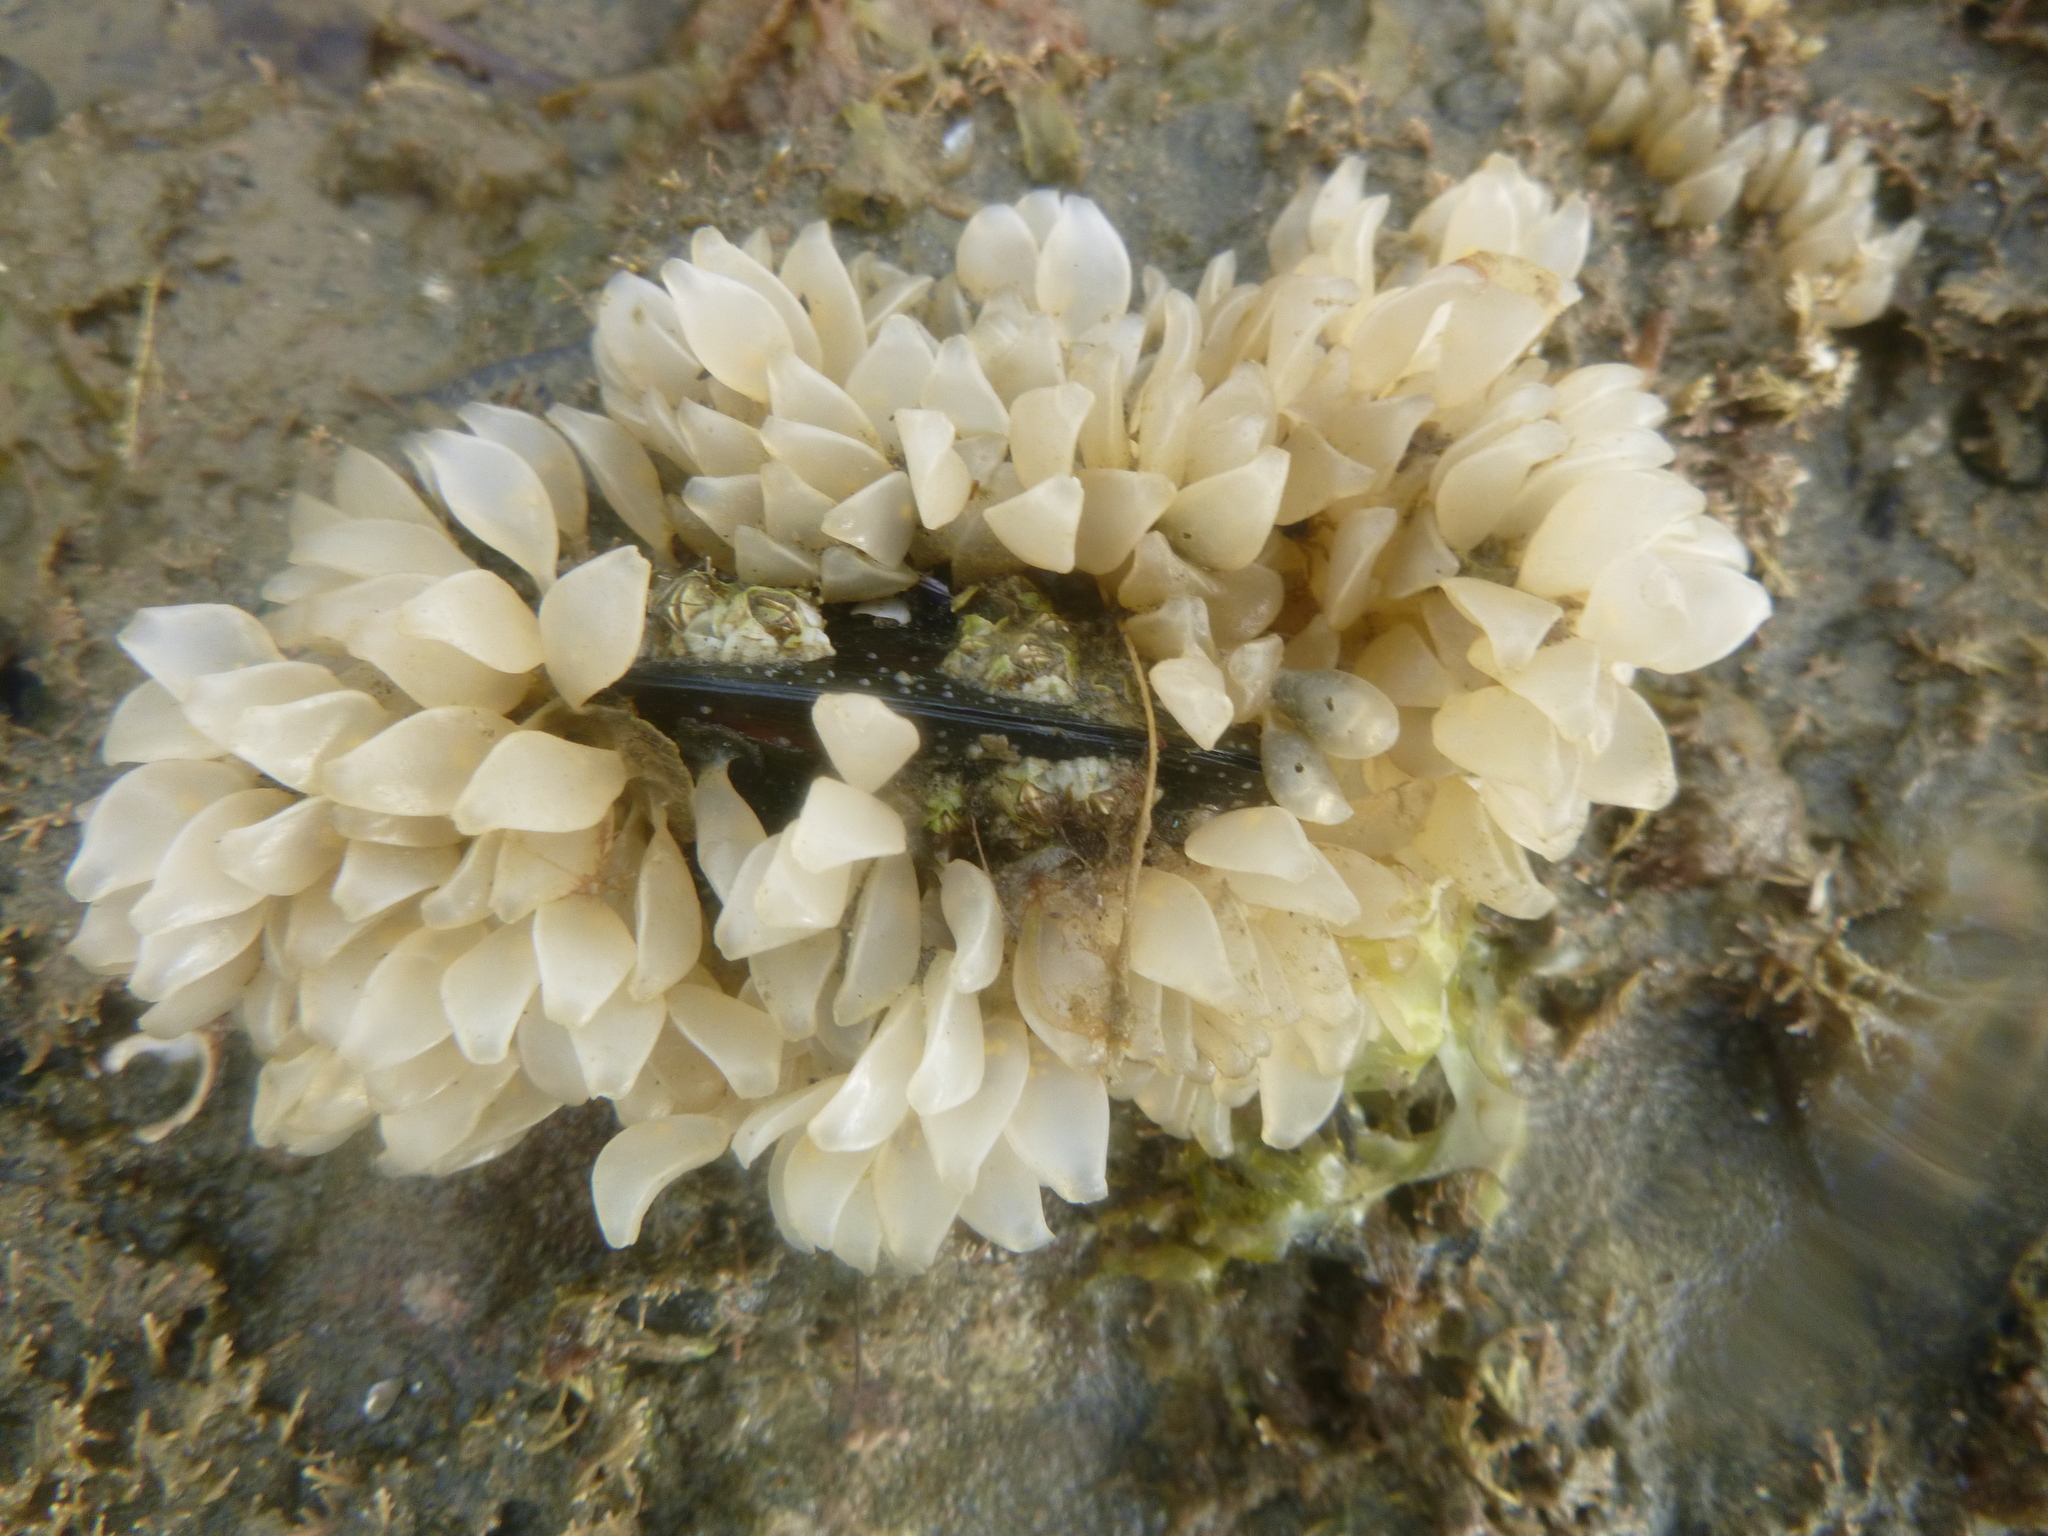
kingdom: Animalia
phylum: Mollusca
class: Gastropoda
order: Neogastropoda
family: Cominellidae
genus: Cominella
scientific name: Cominella adspersa
